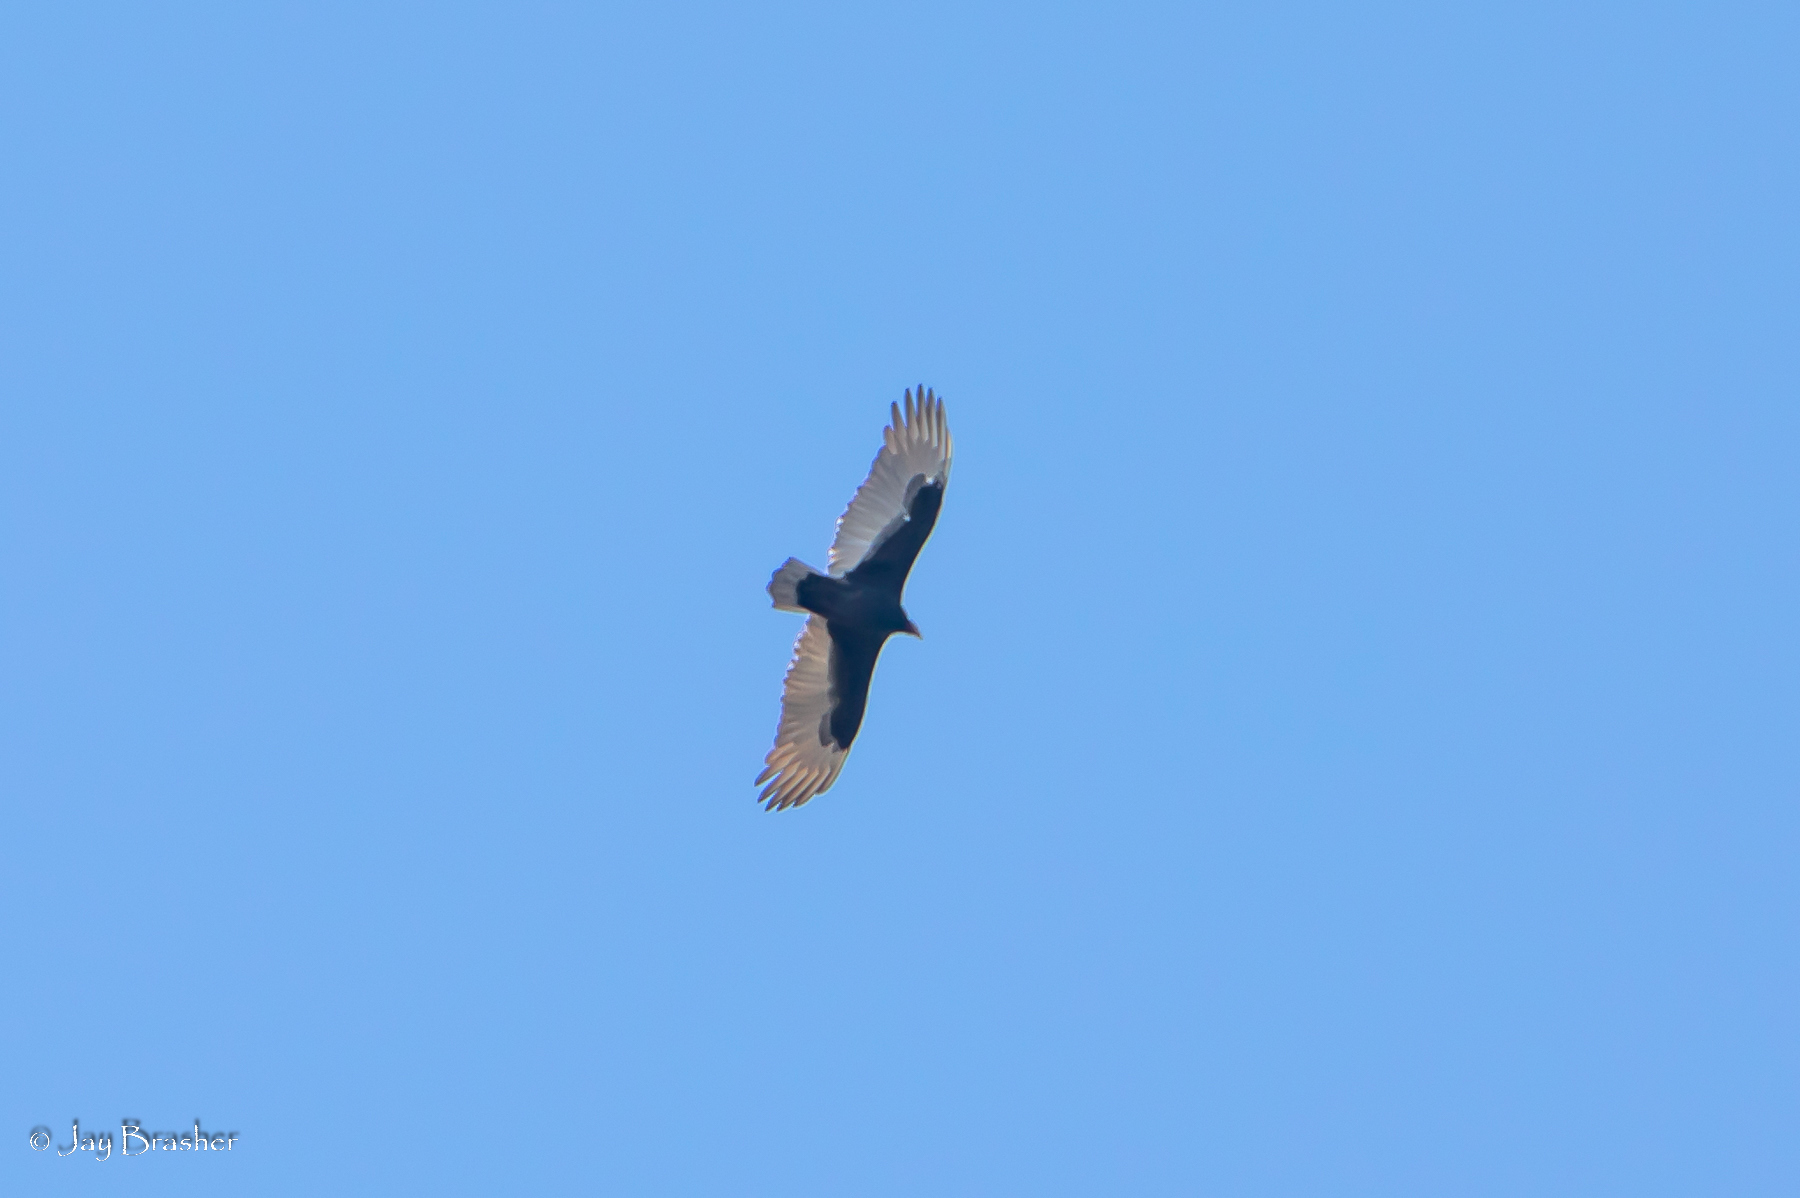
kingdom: Animalia
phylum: Chordata
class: Aves
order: Accipitriformes
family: Cathartidae
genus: Cathartes
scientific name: Cathartes aura
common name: Turkey vulture
